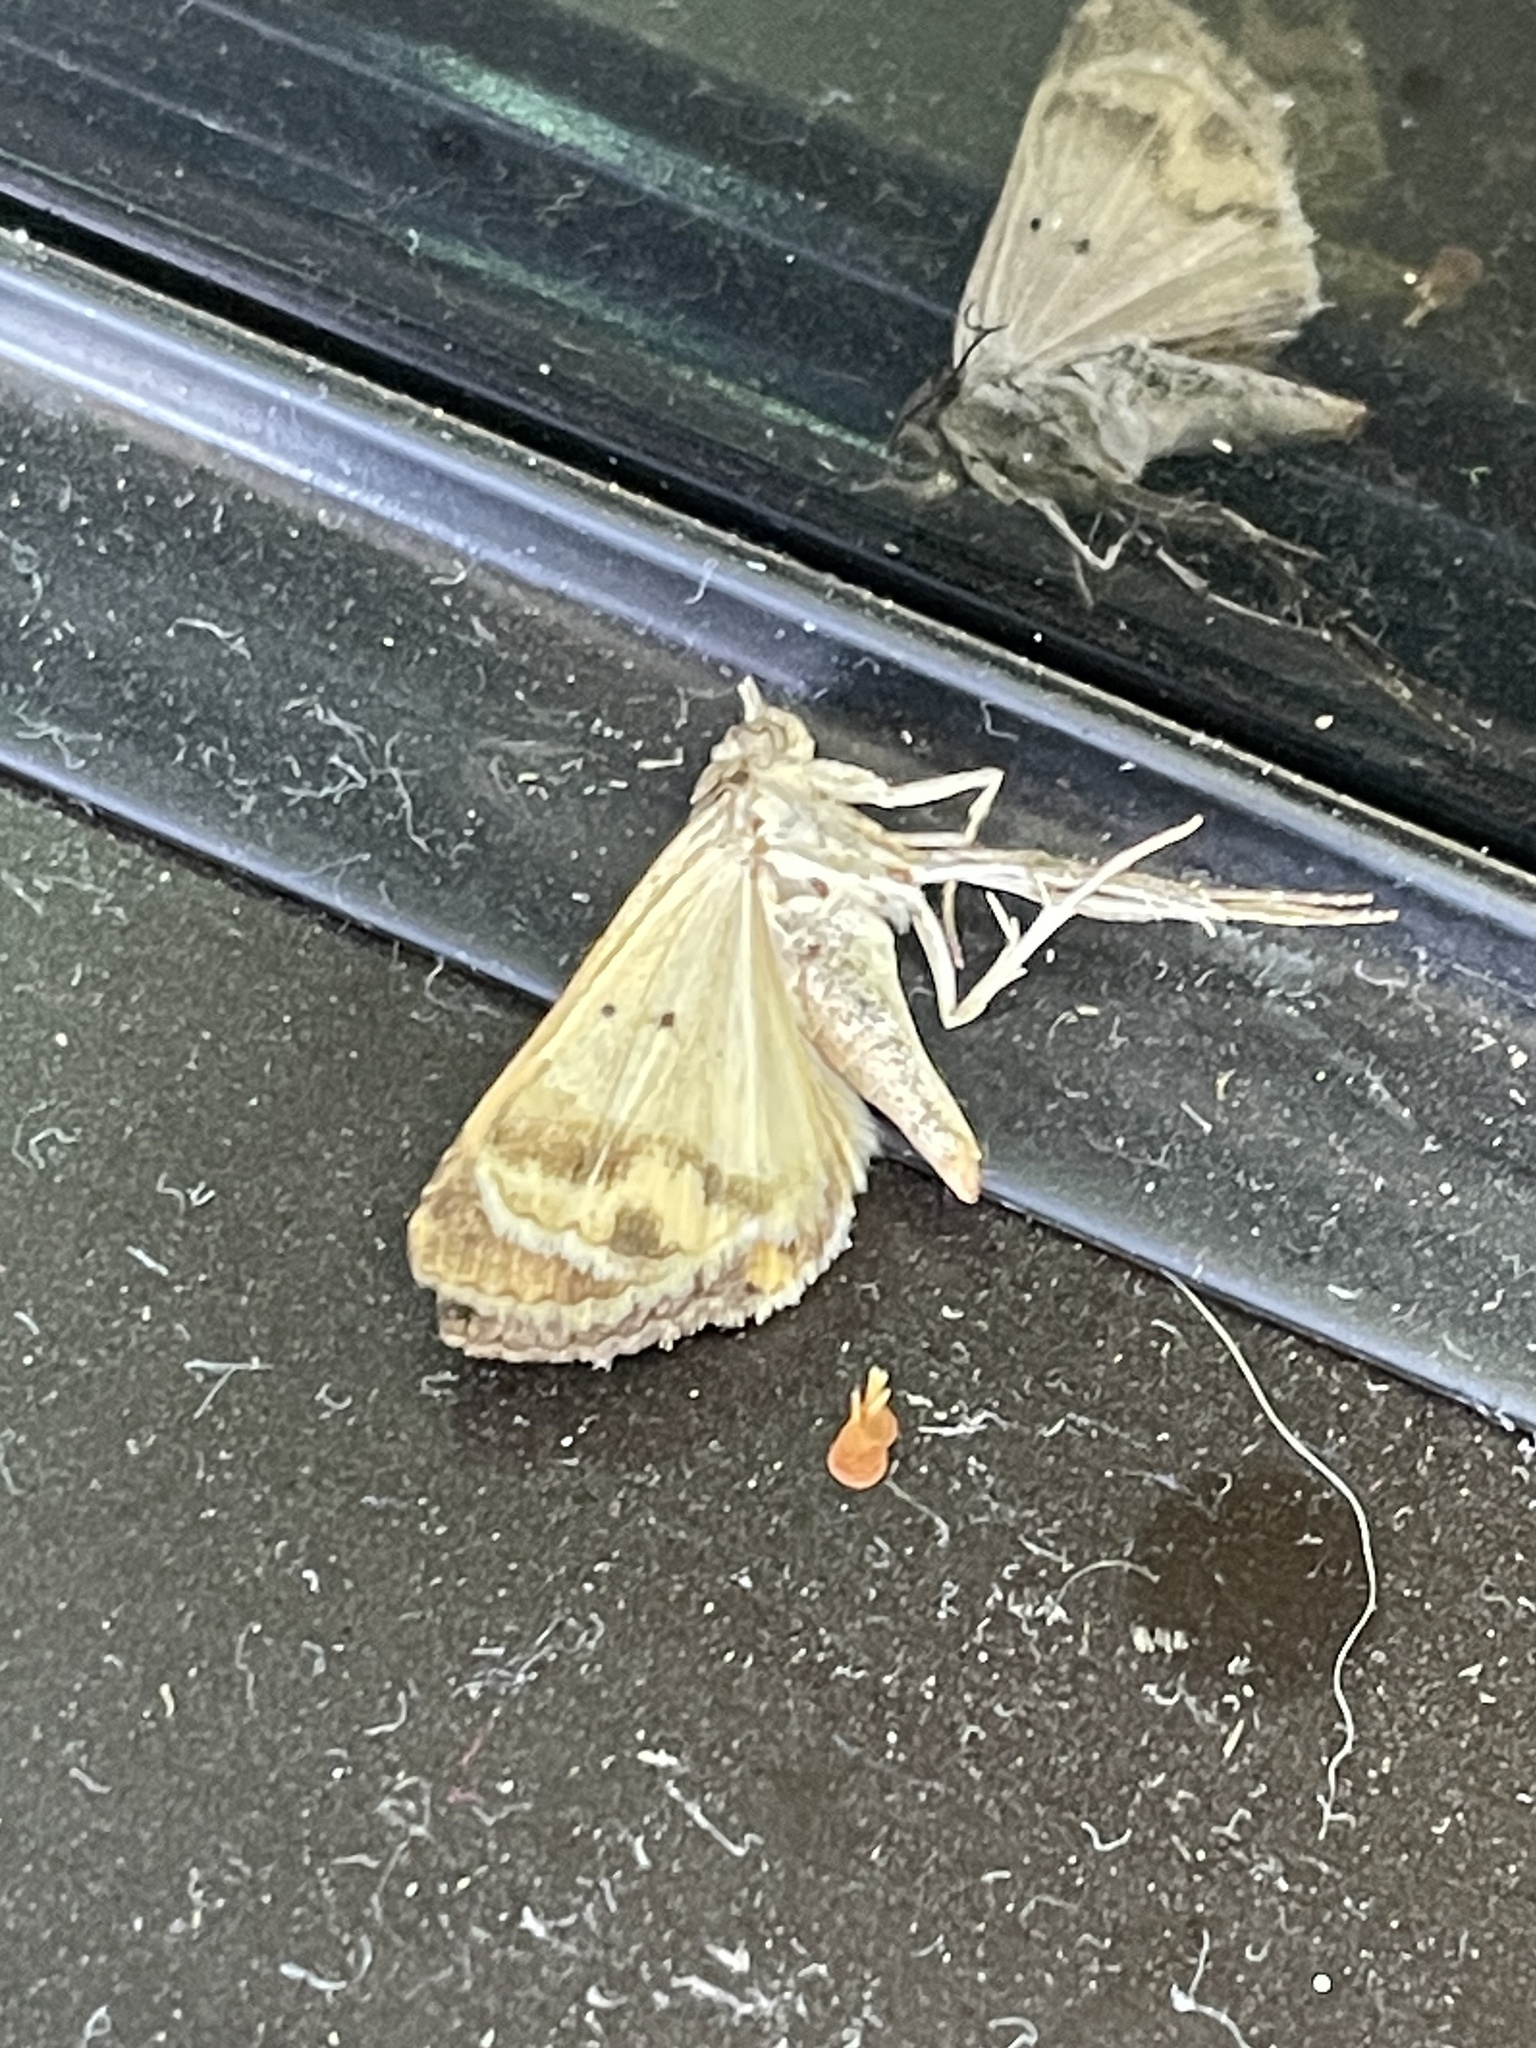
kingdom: Animalia
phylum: Arthropoda
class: Insecta
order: Lepidoptera
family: Erebidae
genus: Bulia
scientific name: Bulia deducta
